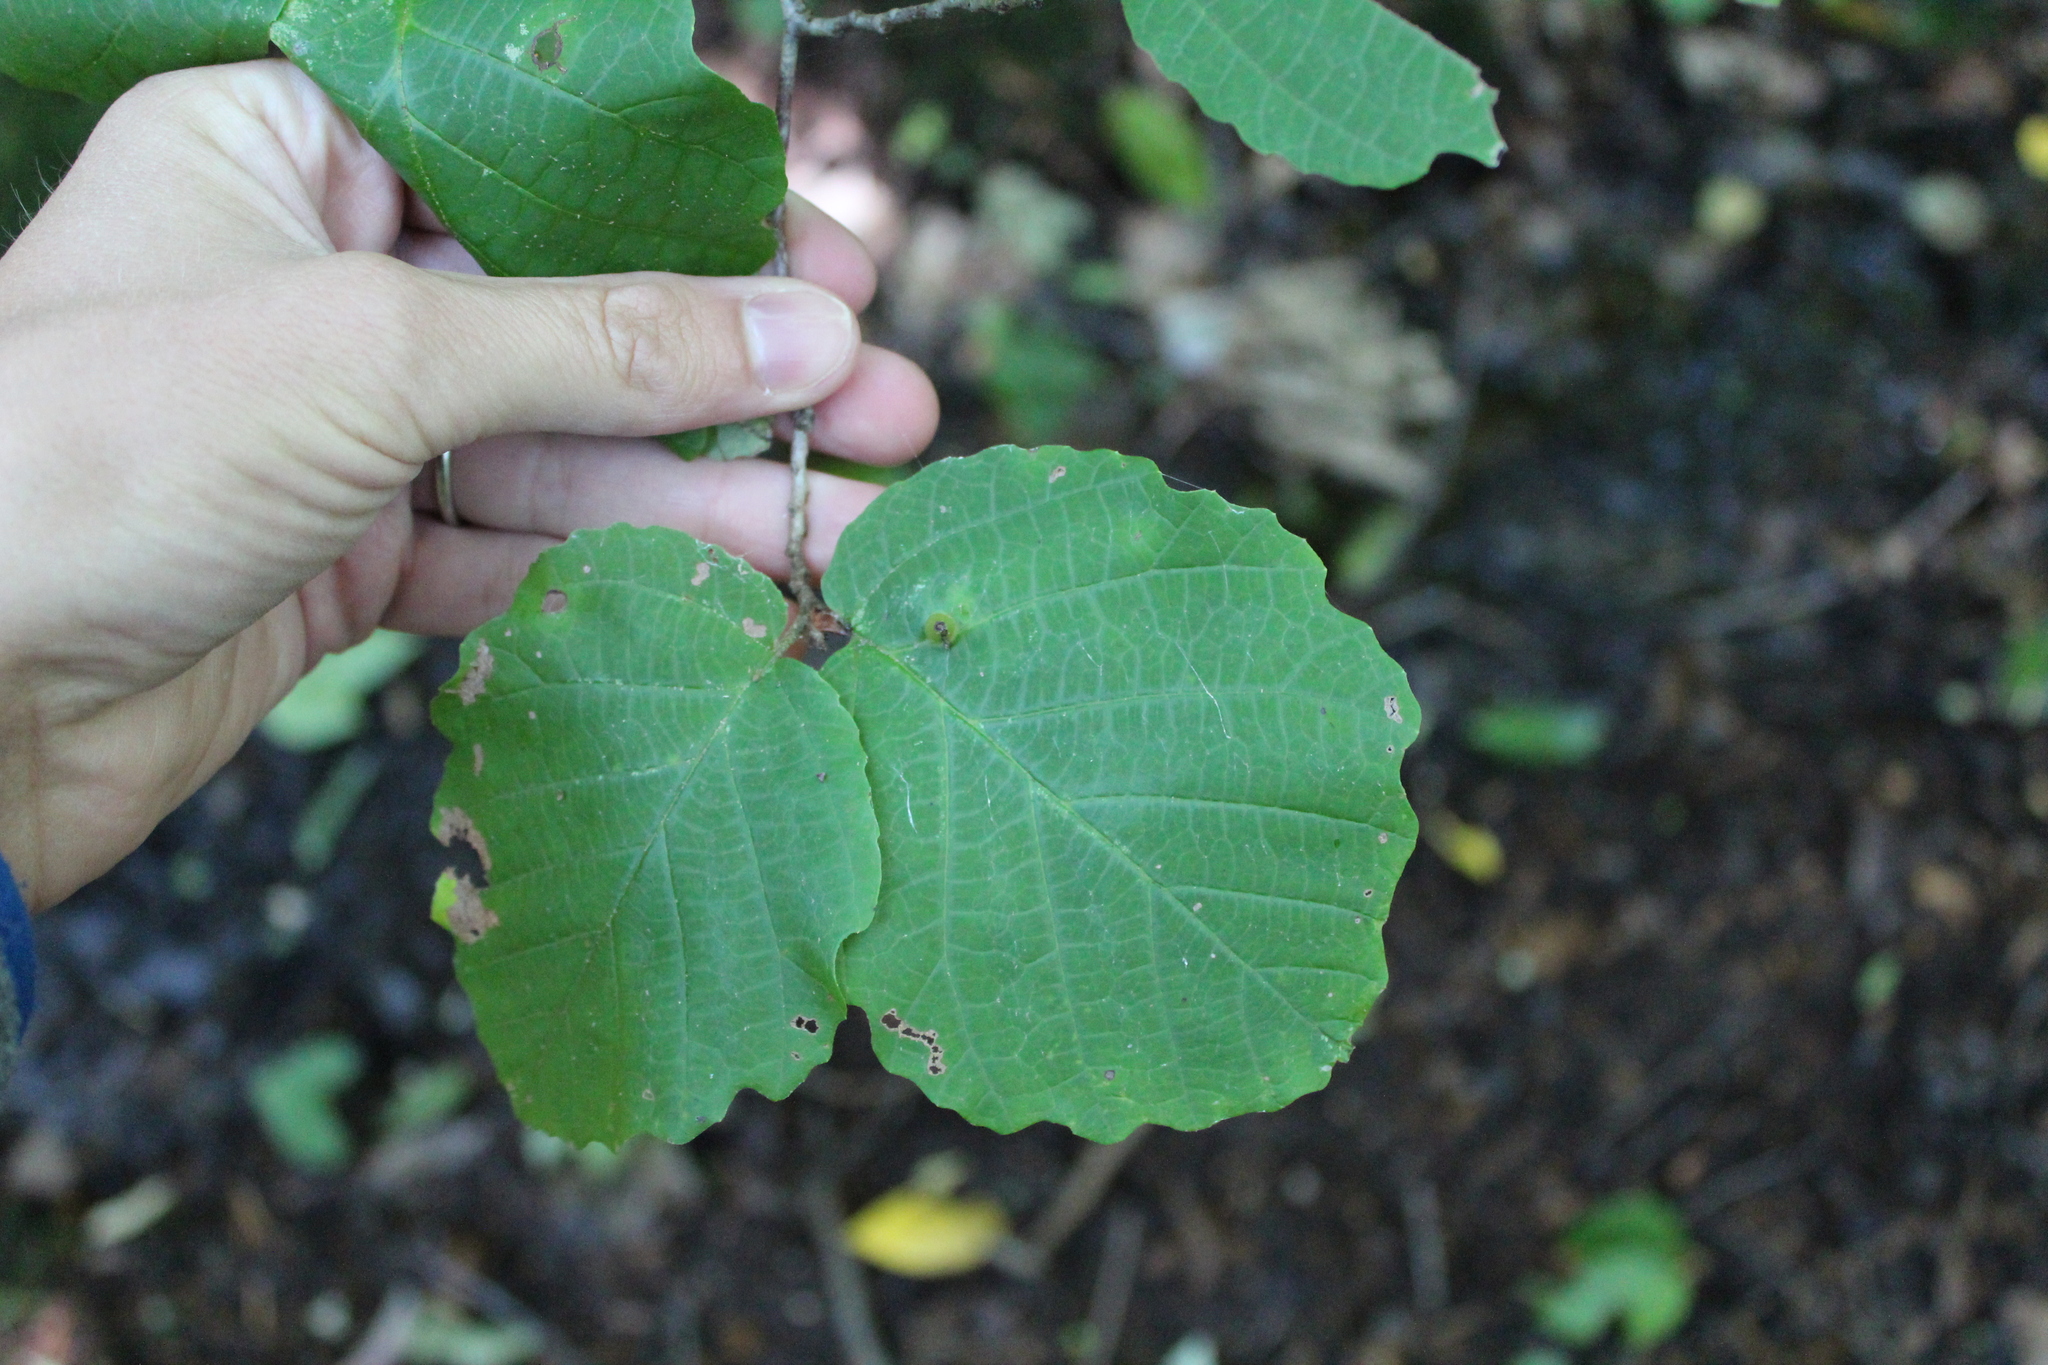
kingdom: Plantae
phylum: Tracheophyta
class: Magnoliopsida
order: Saxifragales
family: Hamamelidaceae
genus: Hamamelis
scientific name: Hamamelis virginiana
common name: Witch-hazel
